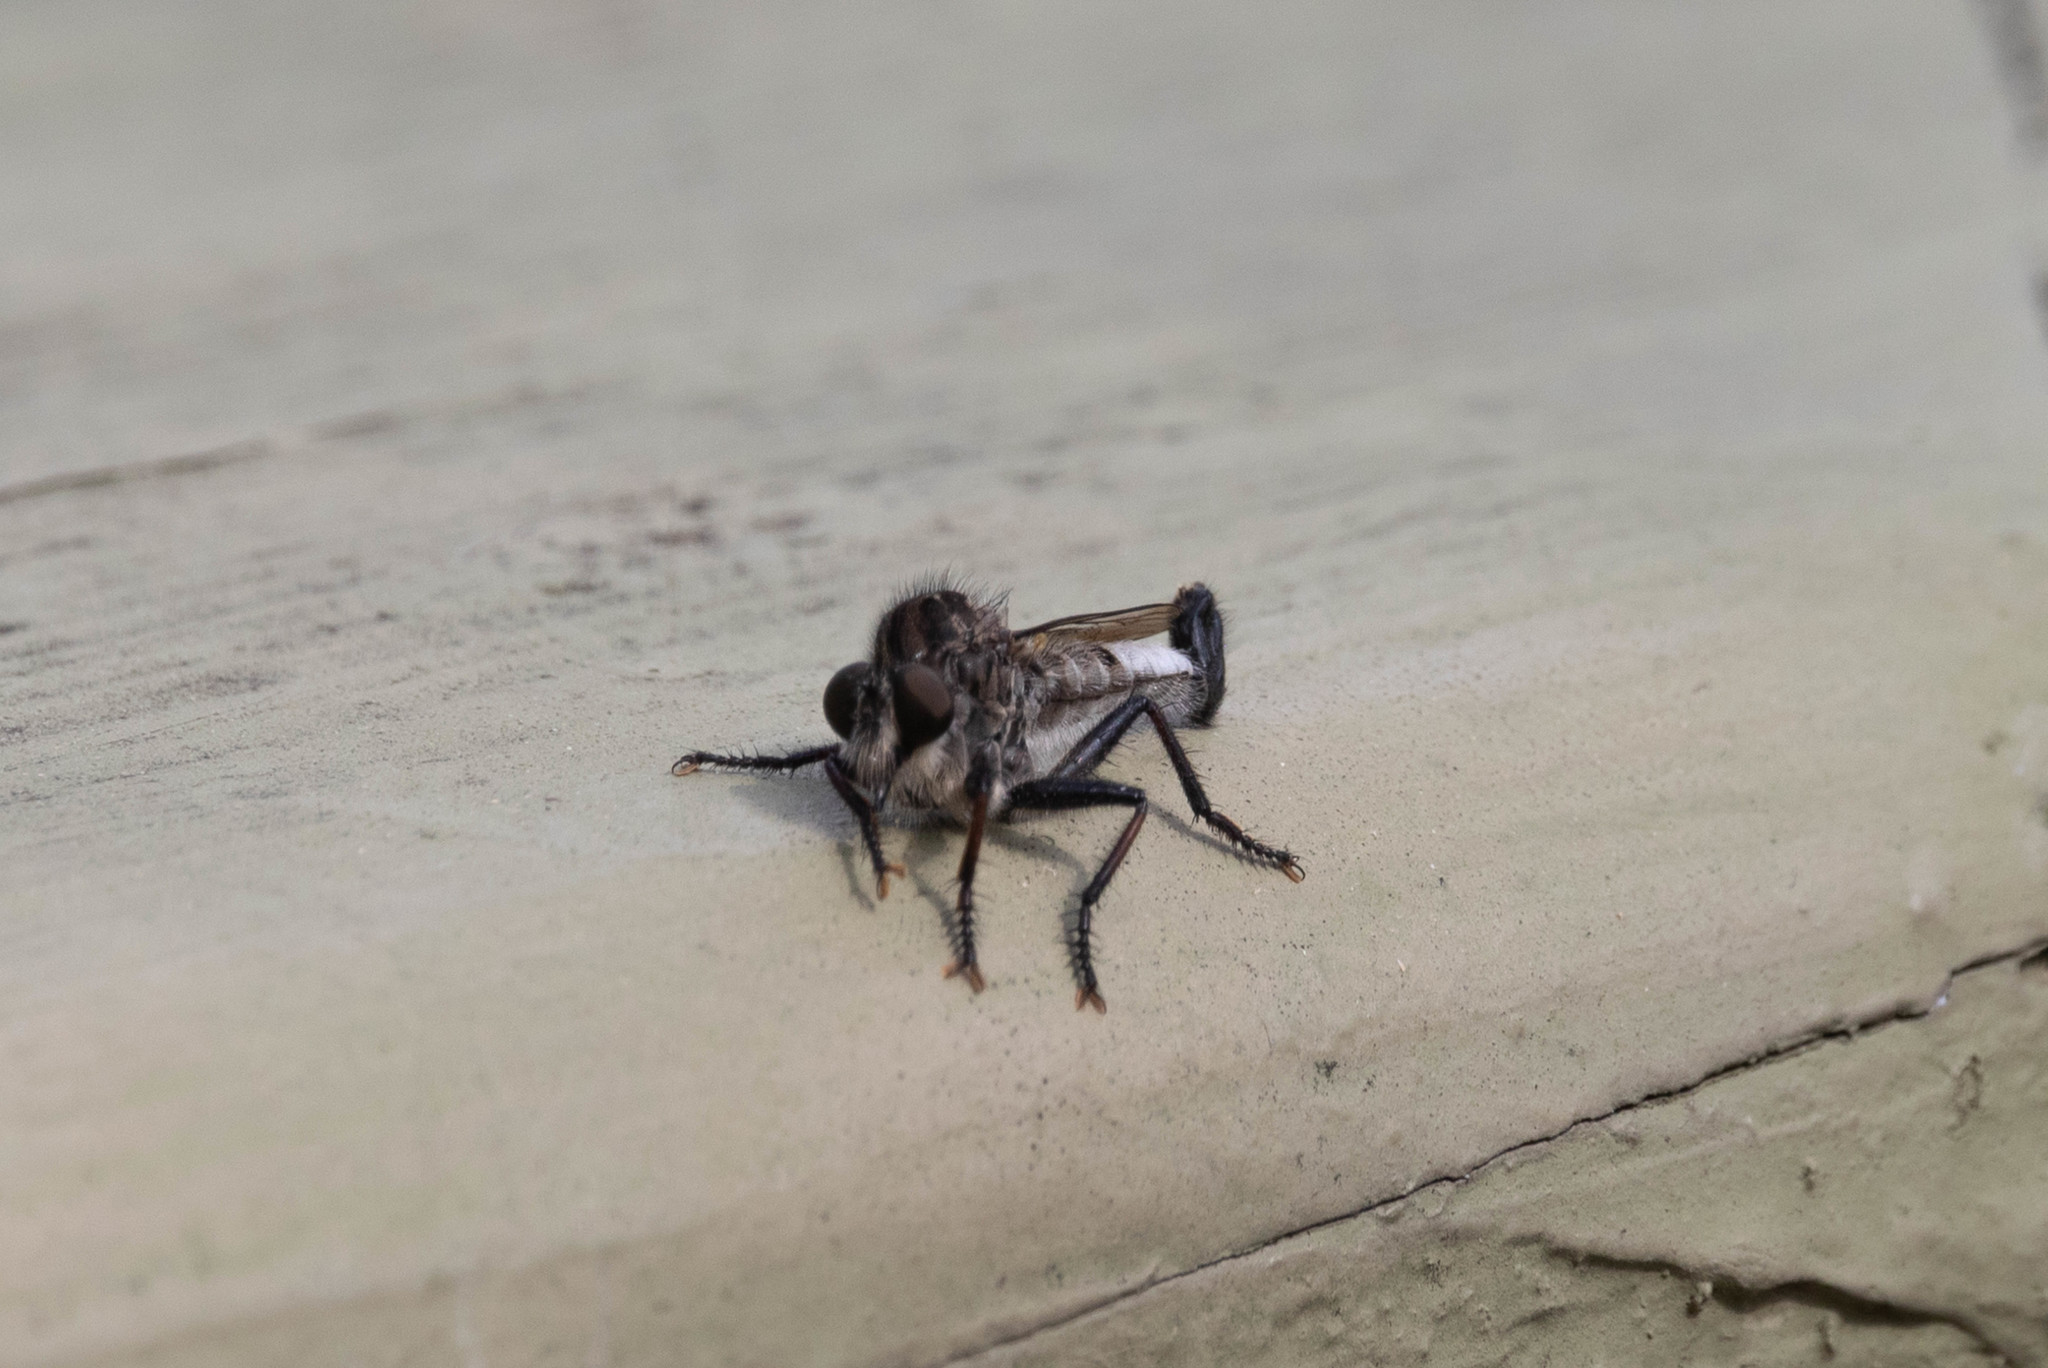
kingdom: Animalia
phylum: Arthropoda
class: Insecta
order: Diptera
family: Asilidae
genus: Efferia
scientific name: Efferia aestuans
